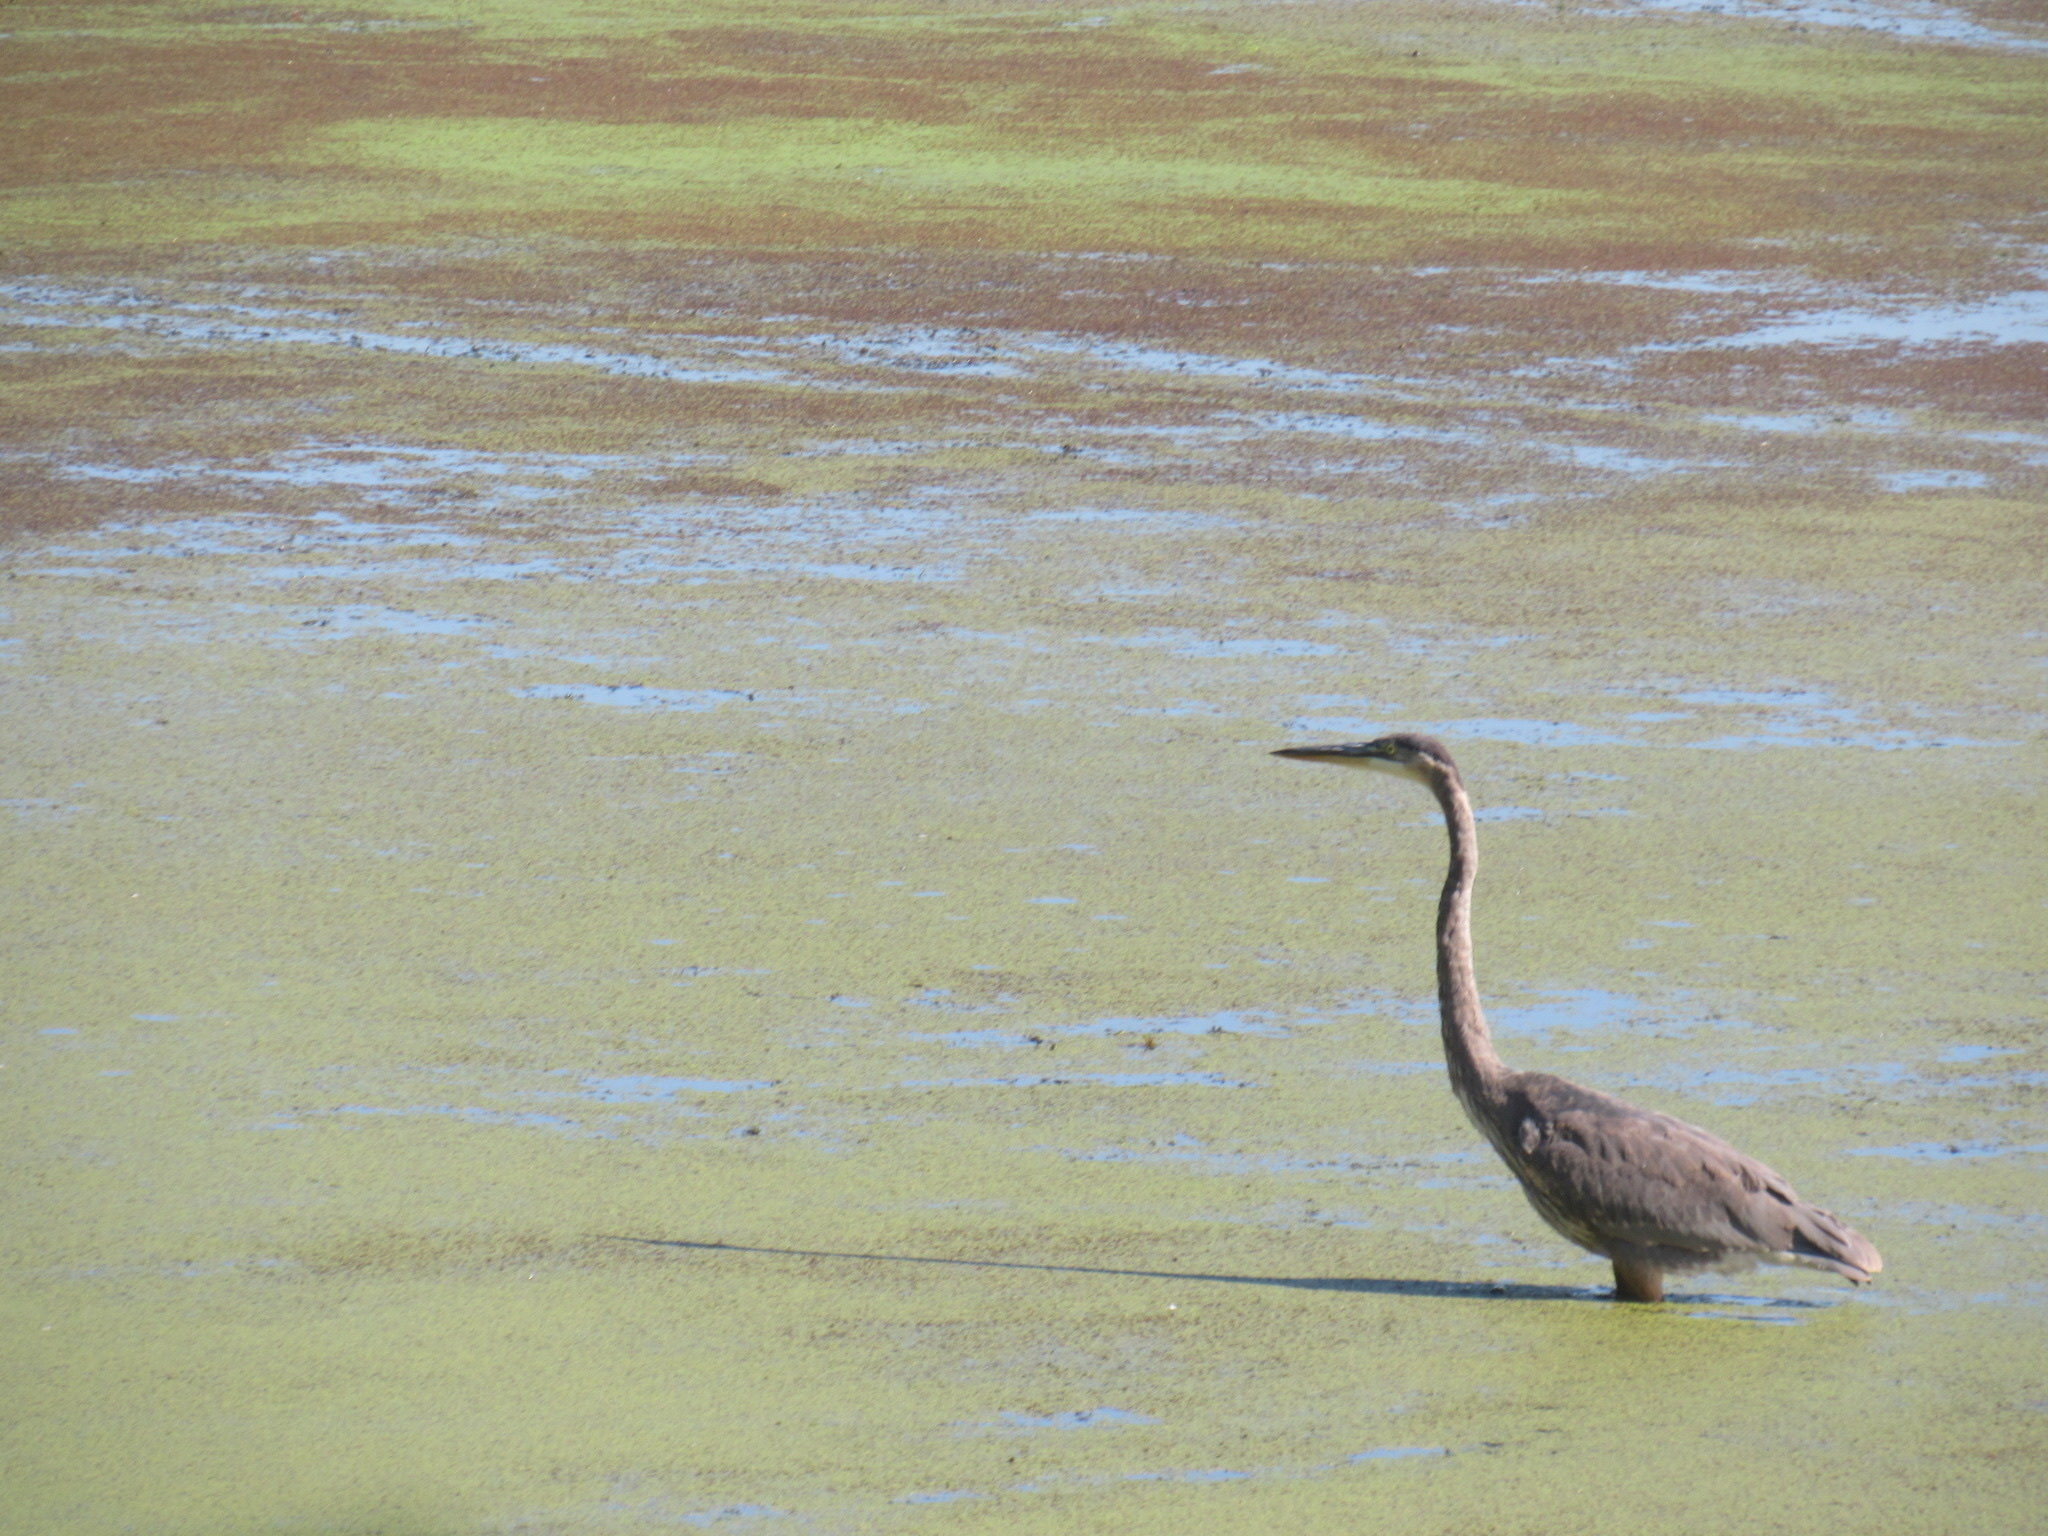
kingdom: Animalia
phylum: Chordata
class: Aves
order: Pelecaniformes
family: Ardeidae
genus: Ardea
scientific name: Ardea herodias
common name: Great blue heron
